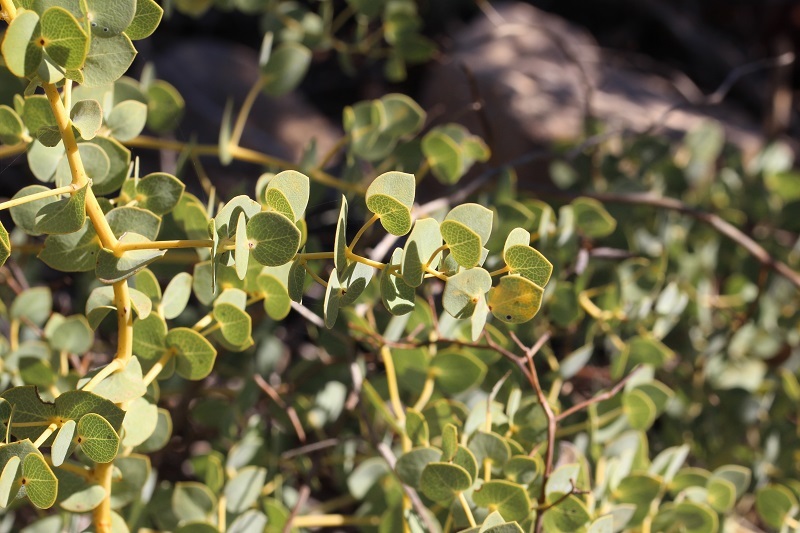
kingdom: Plantae
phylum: Tracheophyta
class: Magnoliopsida
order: Fabales
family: Fabaceae
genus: Rafnia
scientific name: Rafnia acuminata
